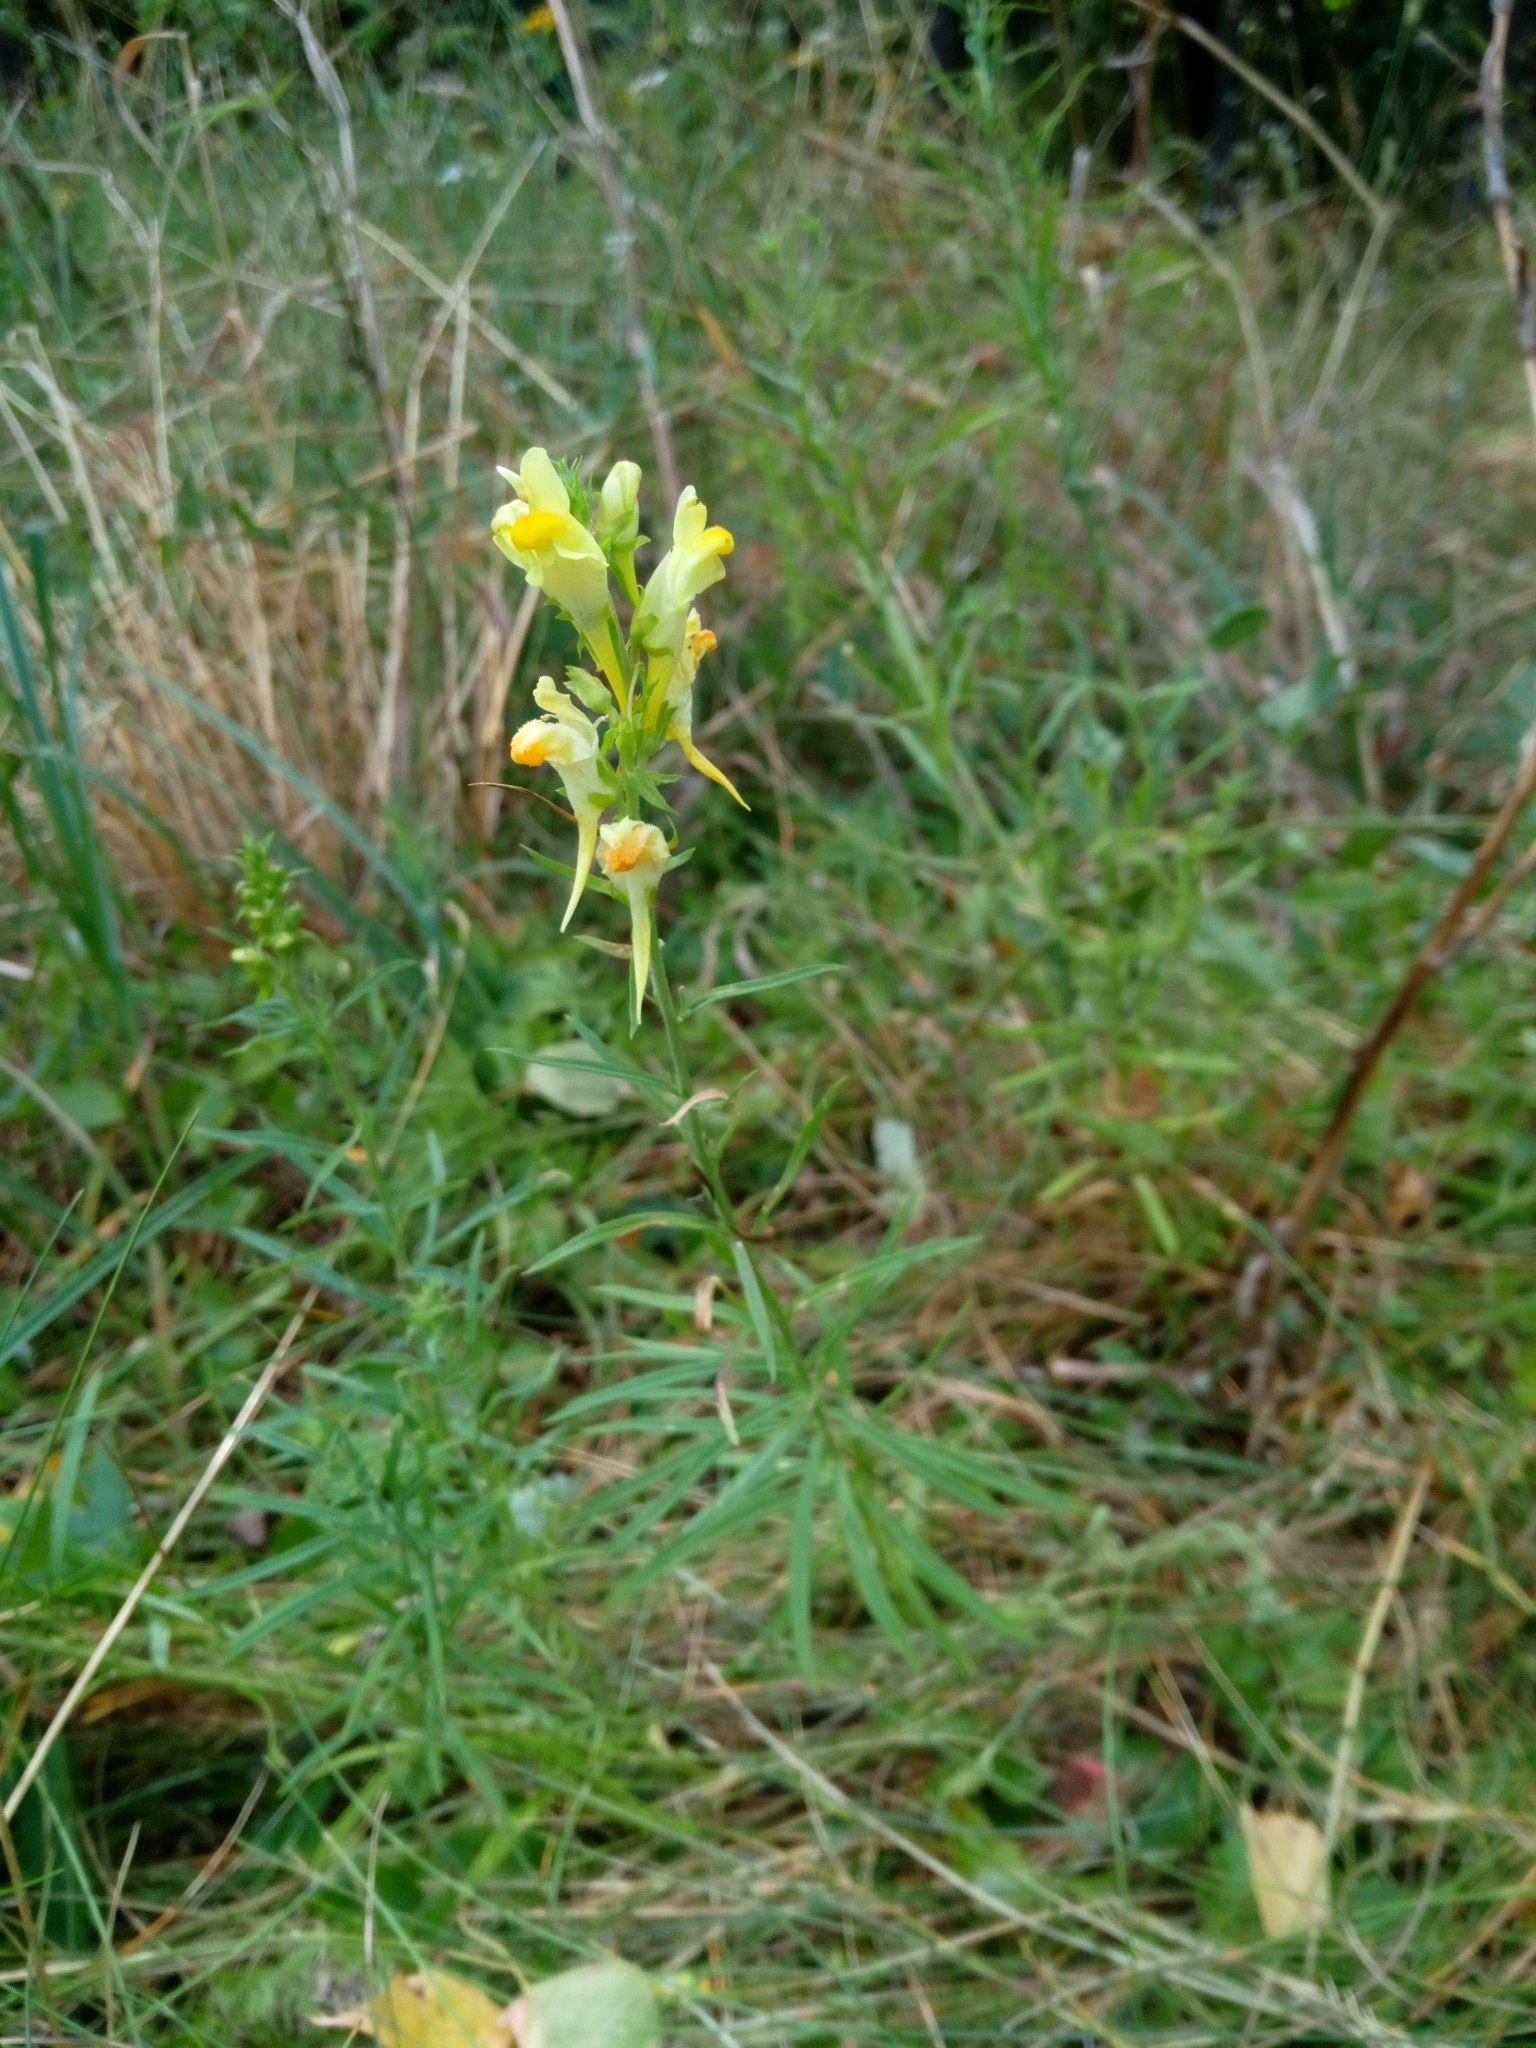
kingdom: Plantae
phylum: Tracheophyta
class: Magnoliopsida
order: Lamiales
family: Plantaginaceae
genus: Linaria
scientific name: Linaria vulgaris
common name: Butter and eggs
